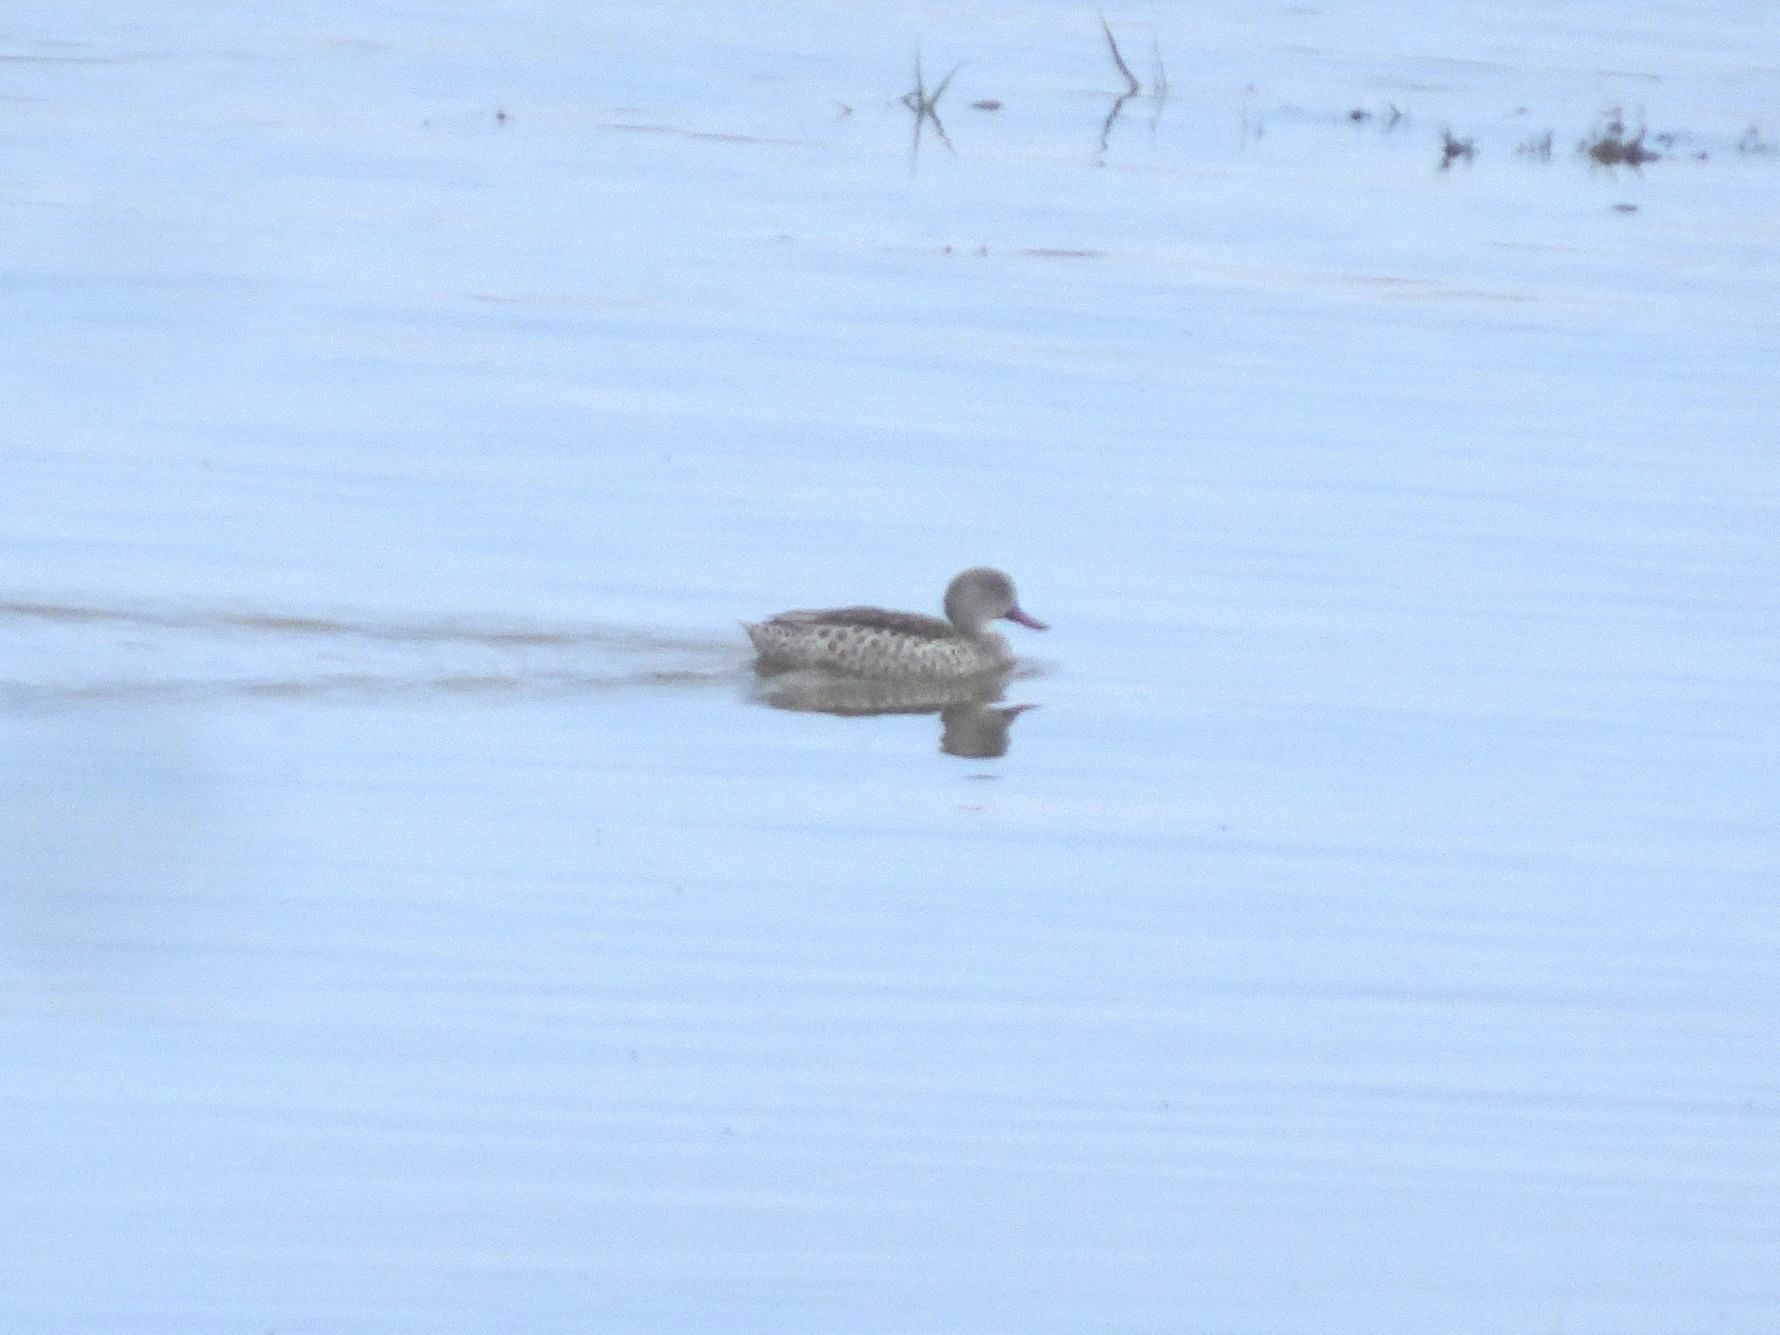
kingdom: Animalia
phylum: Chordata
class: Aves
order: Anseriformes
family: Anatidae
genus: Anas
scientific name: Anas capensis
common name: Cape teal
